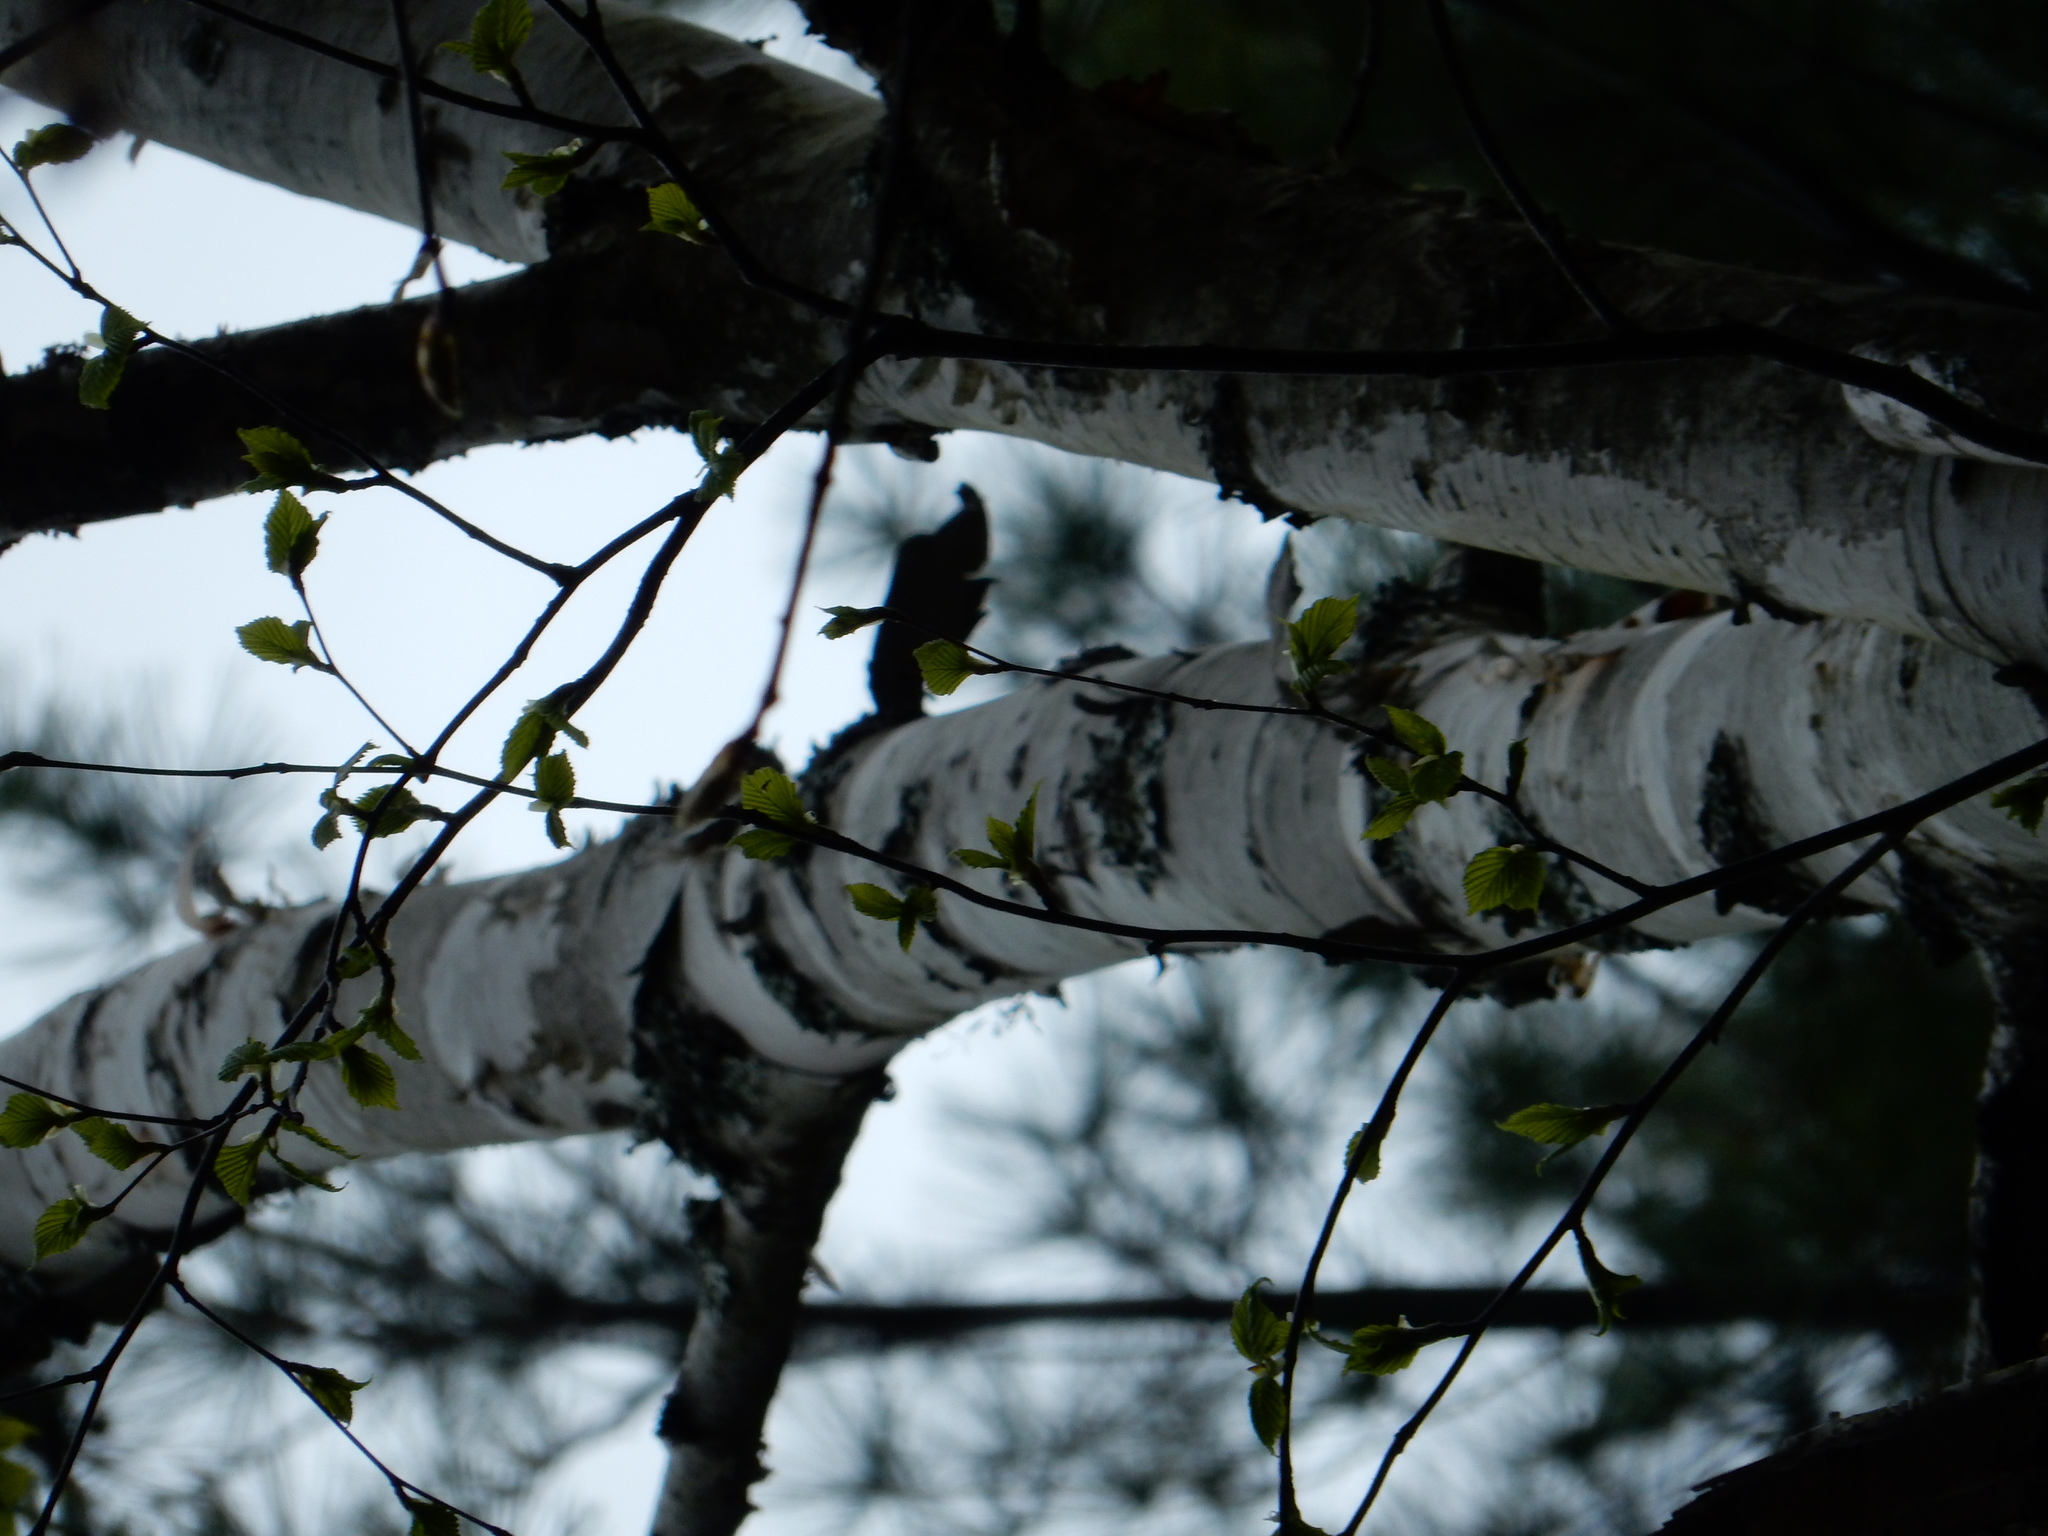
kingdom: Plantae
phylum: Tracheophyta
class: Magnoliopsida
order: Fagales
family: Betulaceae
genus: Betula
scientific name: Betula papyrifera
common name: Paper birch
